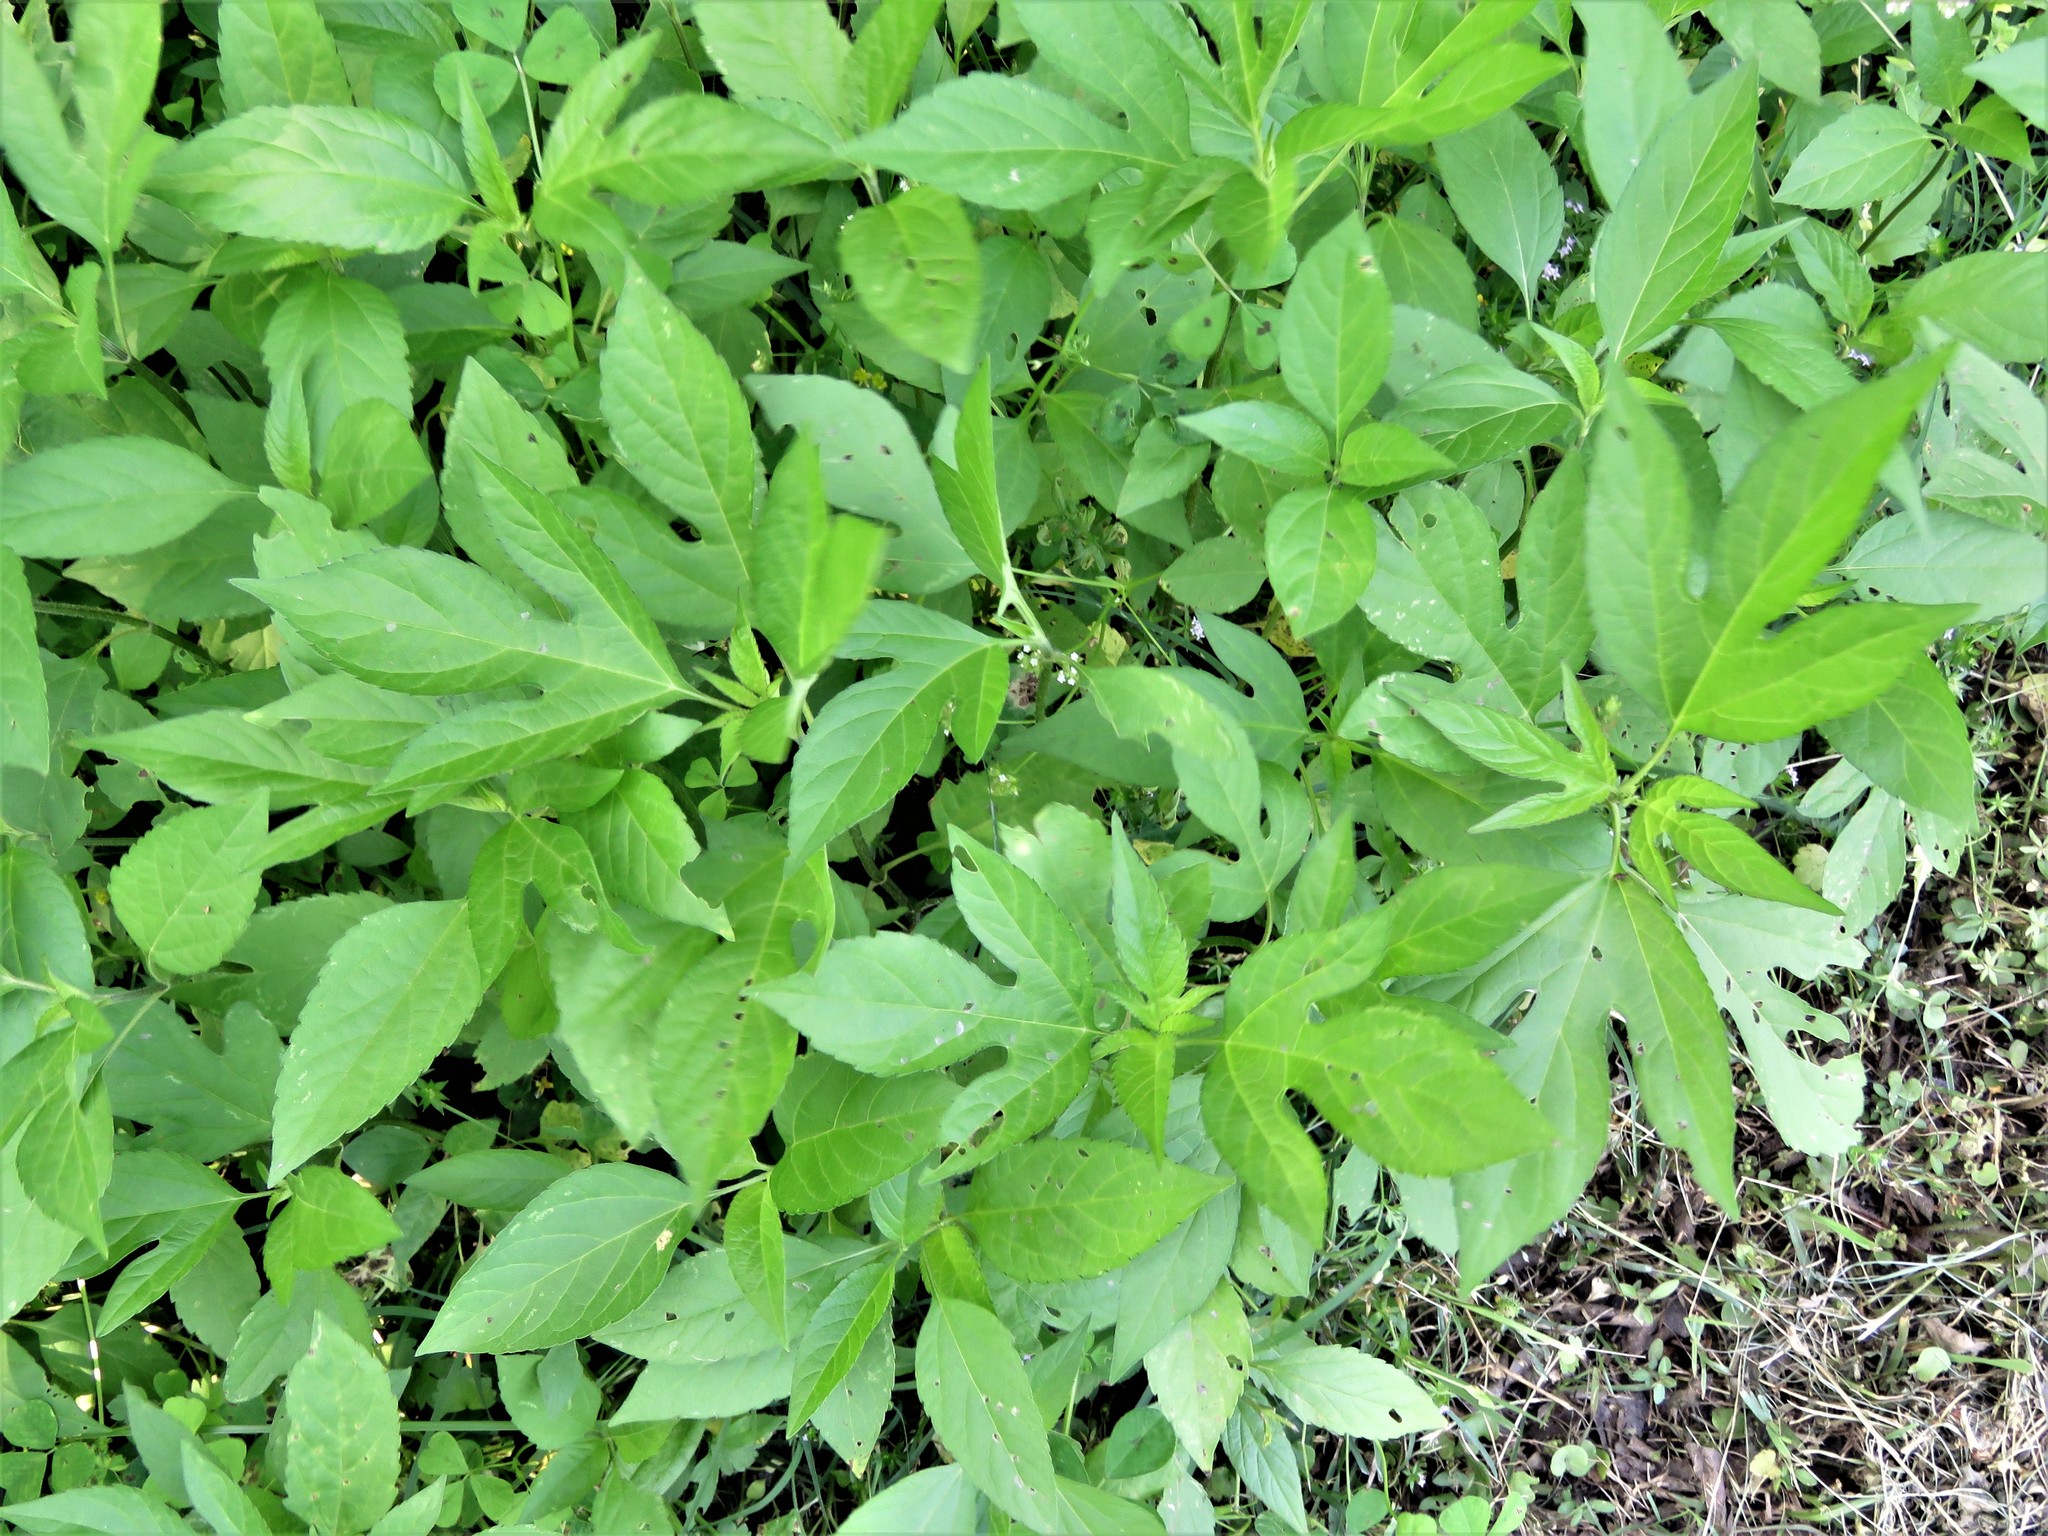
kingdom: Plantae
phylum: Tracheophyta
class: Magnoliopsida
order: Asterales
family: Asteraceae
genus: Ambrosia
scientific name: Ambrosia trifida
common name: Giant ragweed
